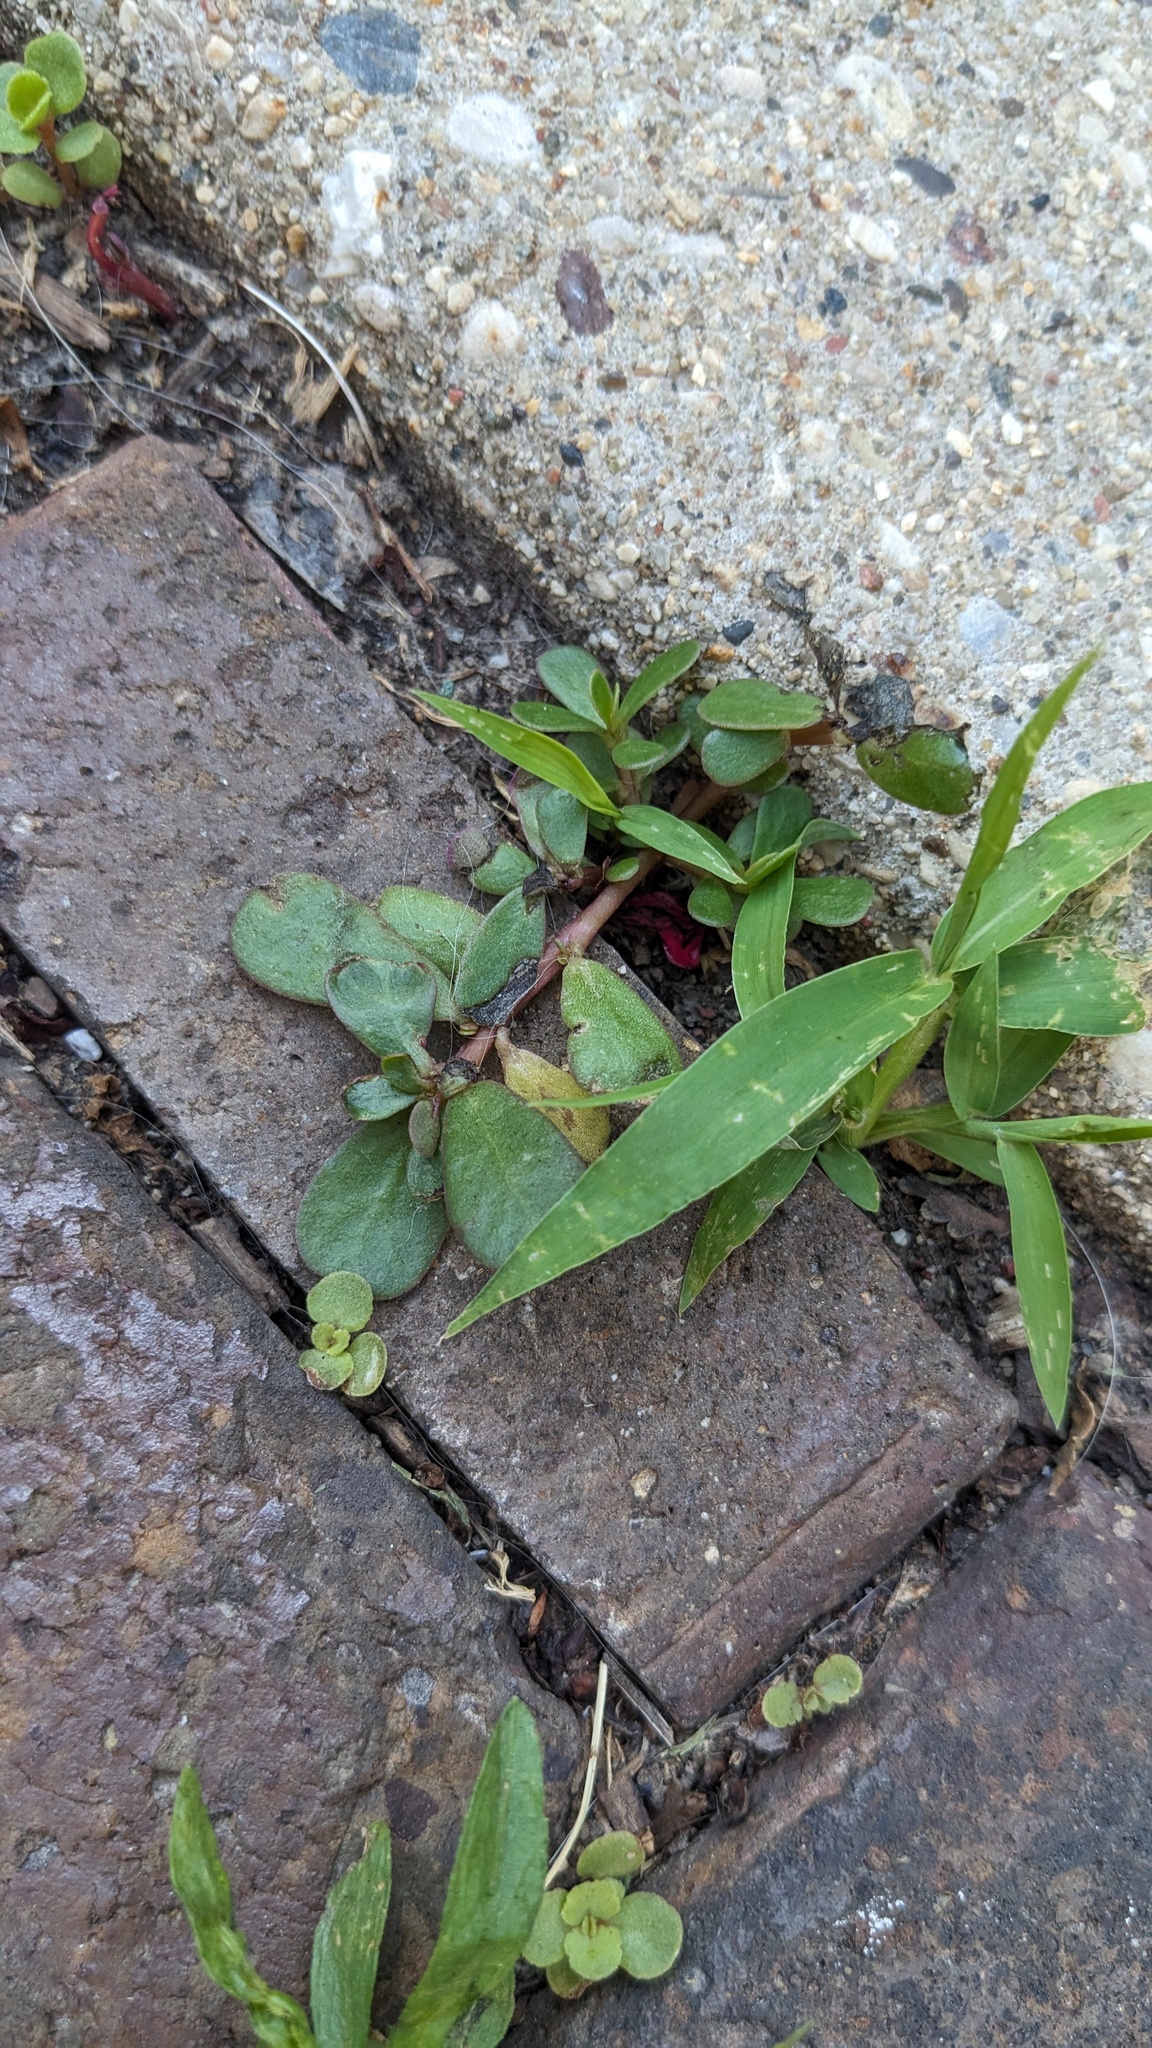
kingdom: Plantae
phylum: Tracheophyta
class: Magnoliopsida
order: Caryophyllales
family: Portulacaceae
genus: Portulaca
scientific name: Portulaca oleracea
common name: Common purslane
